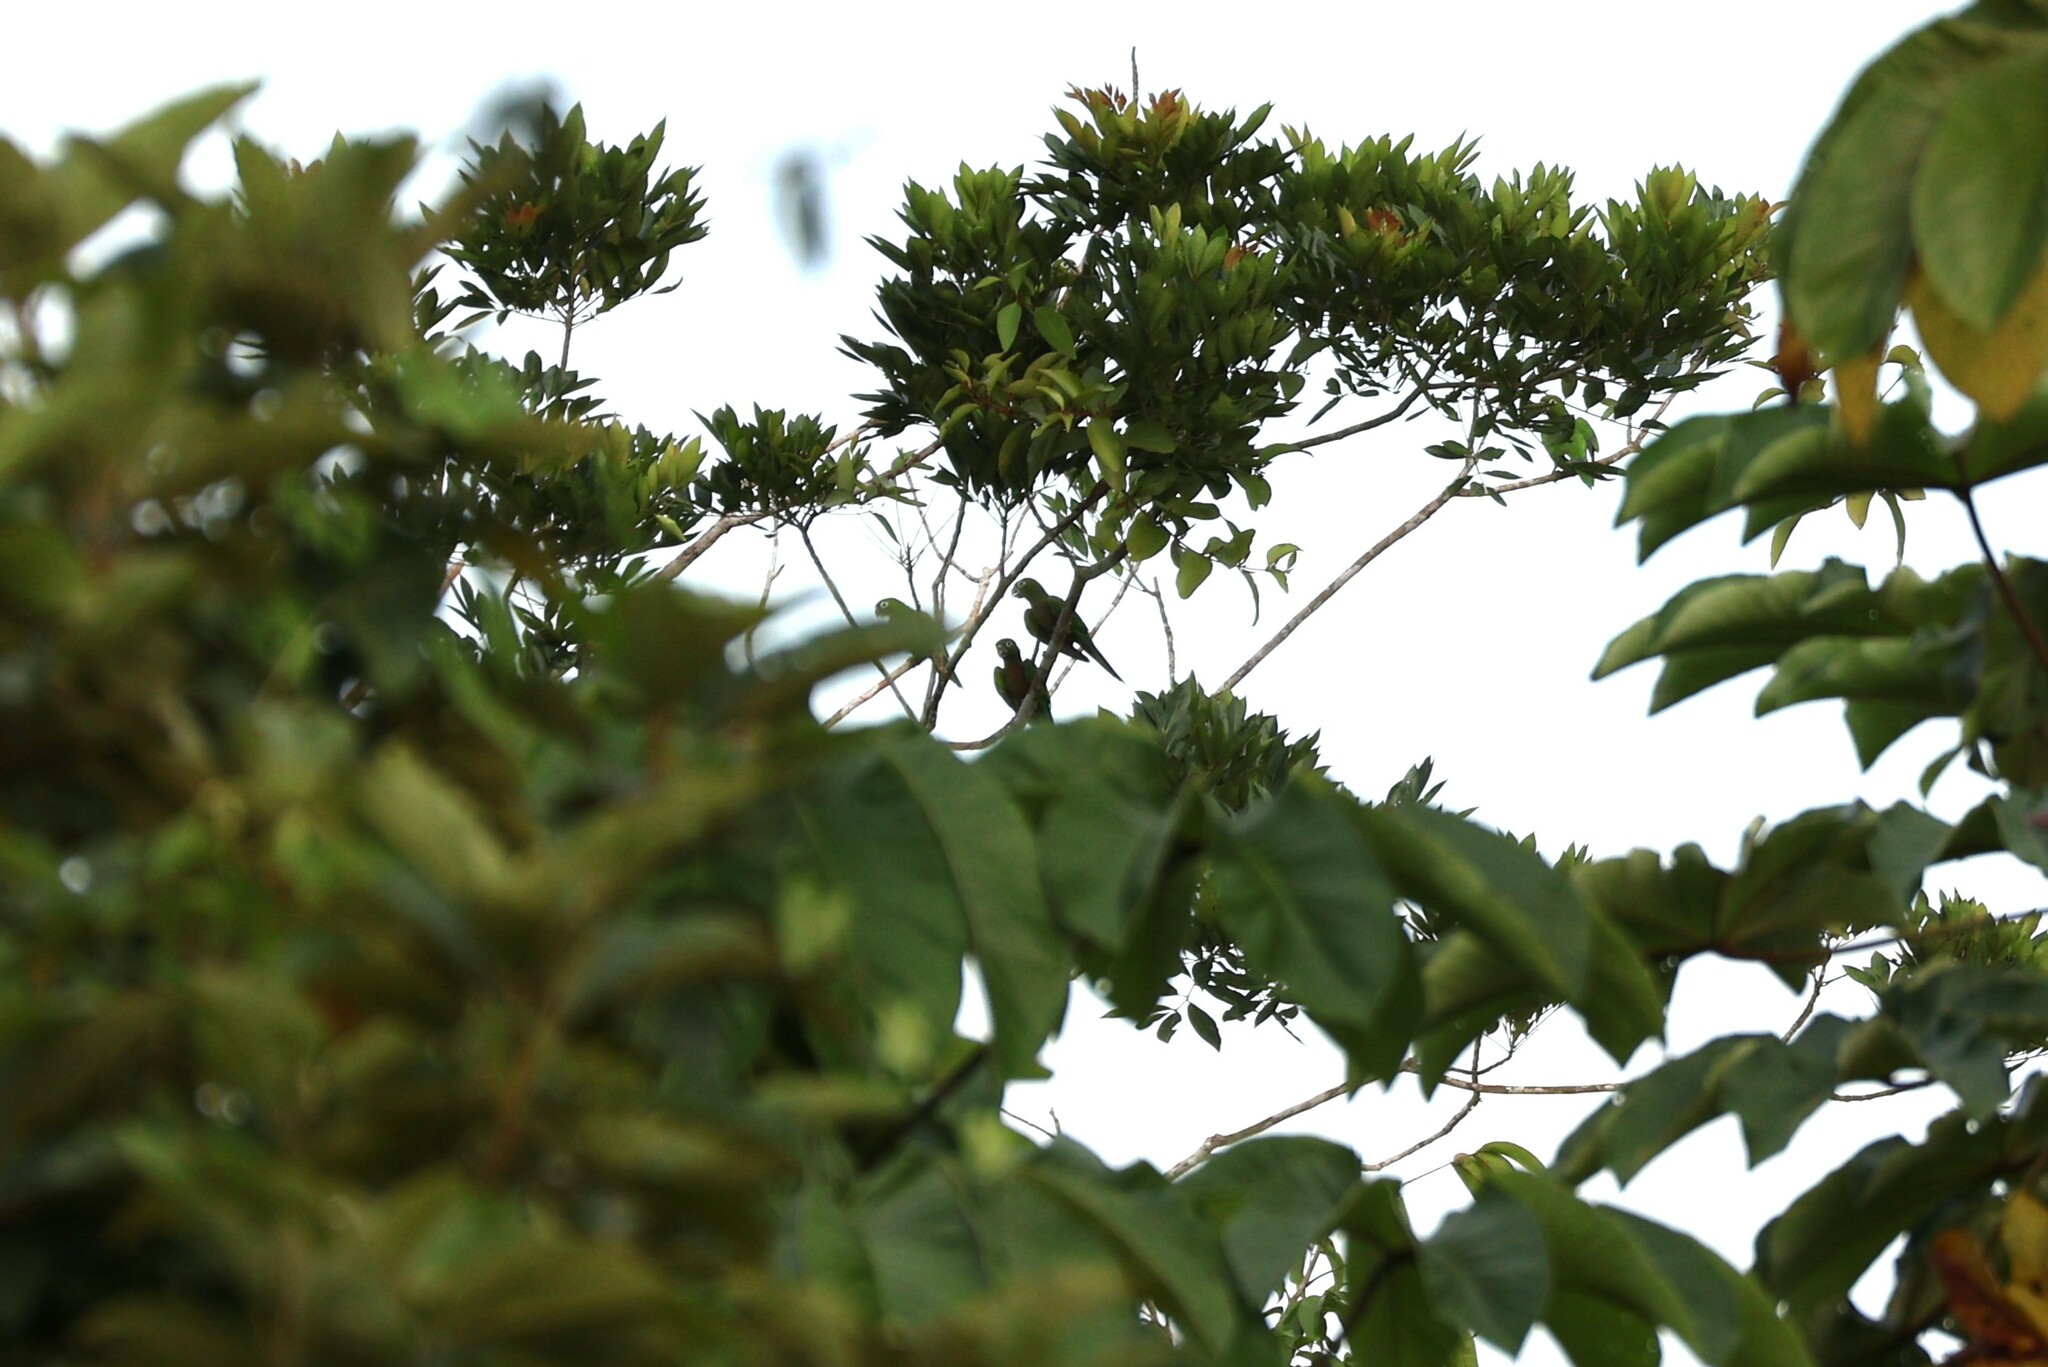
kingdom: Animalia
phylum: Chordata
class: Aves
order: Psittaciformes
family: Psittacidae
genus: Aratinga
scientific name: Aratinga nana
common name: Olive-throated parakeet
